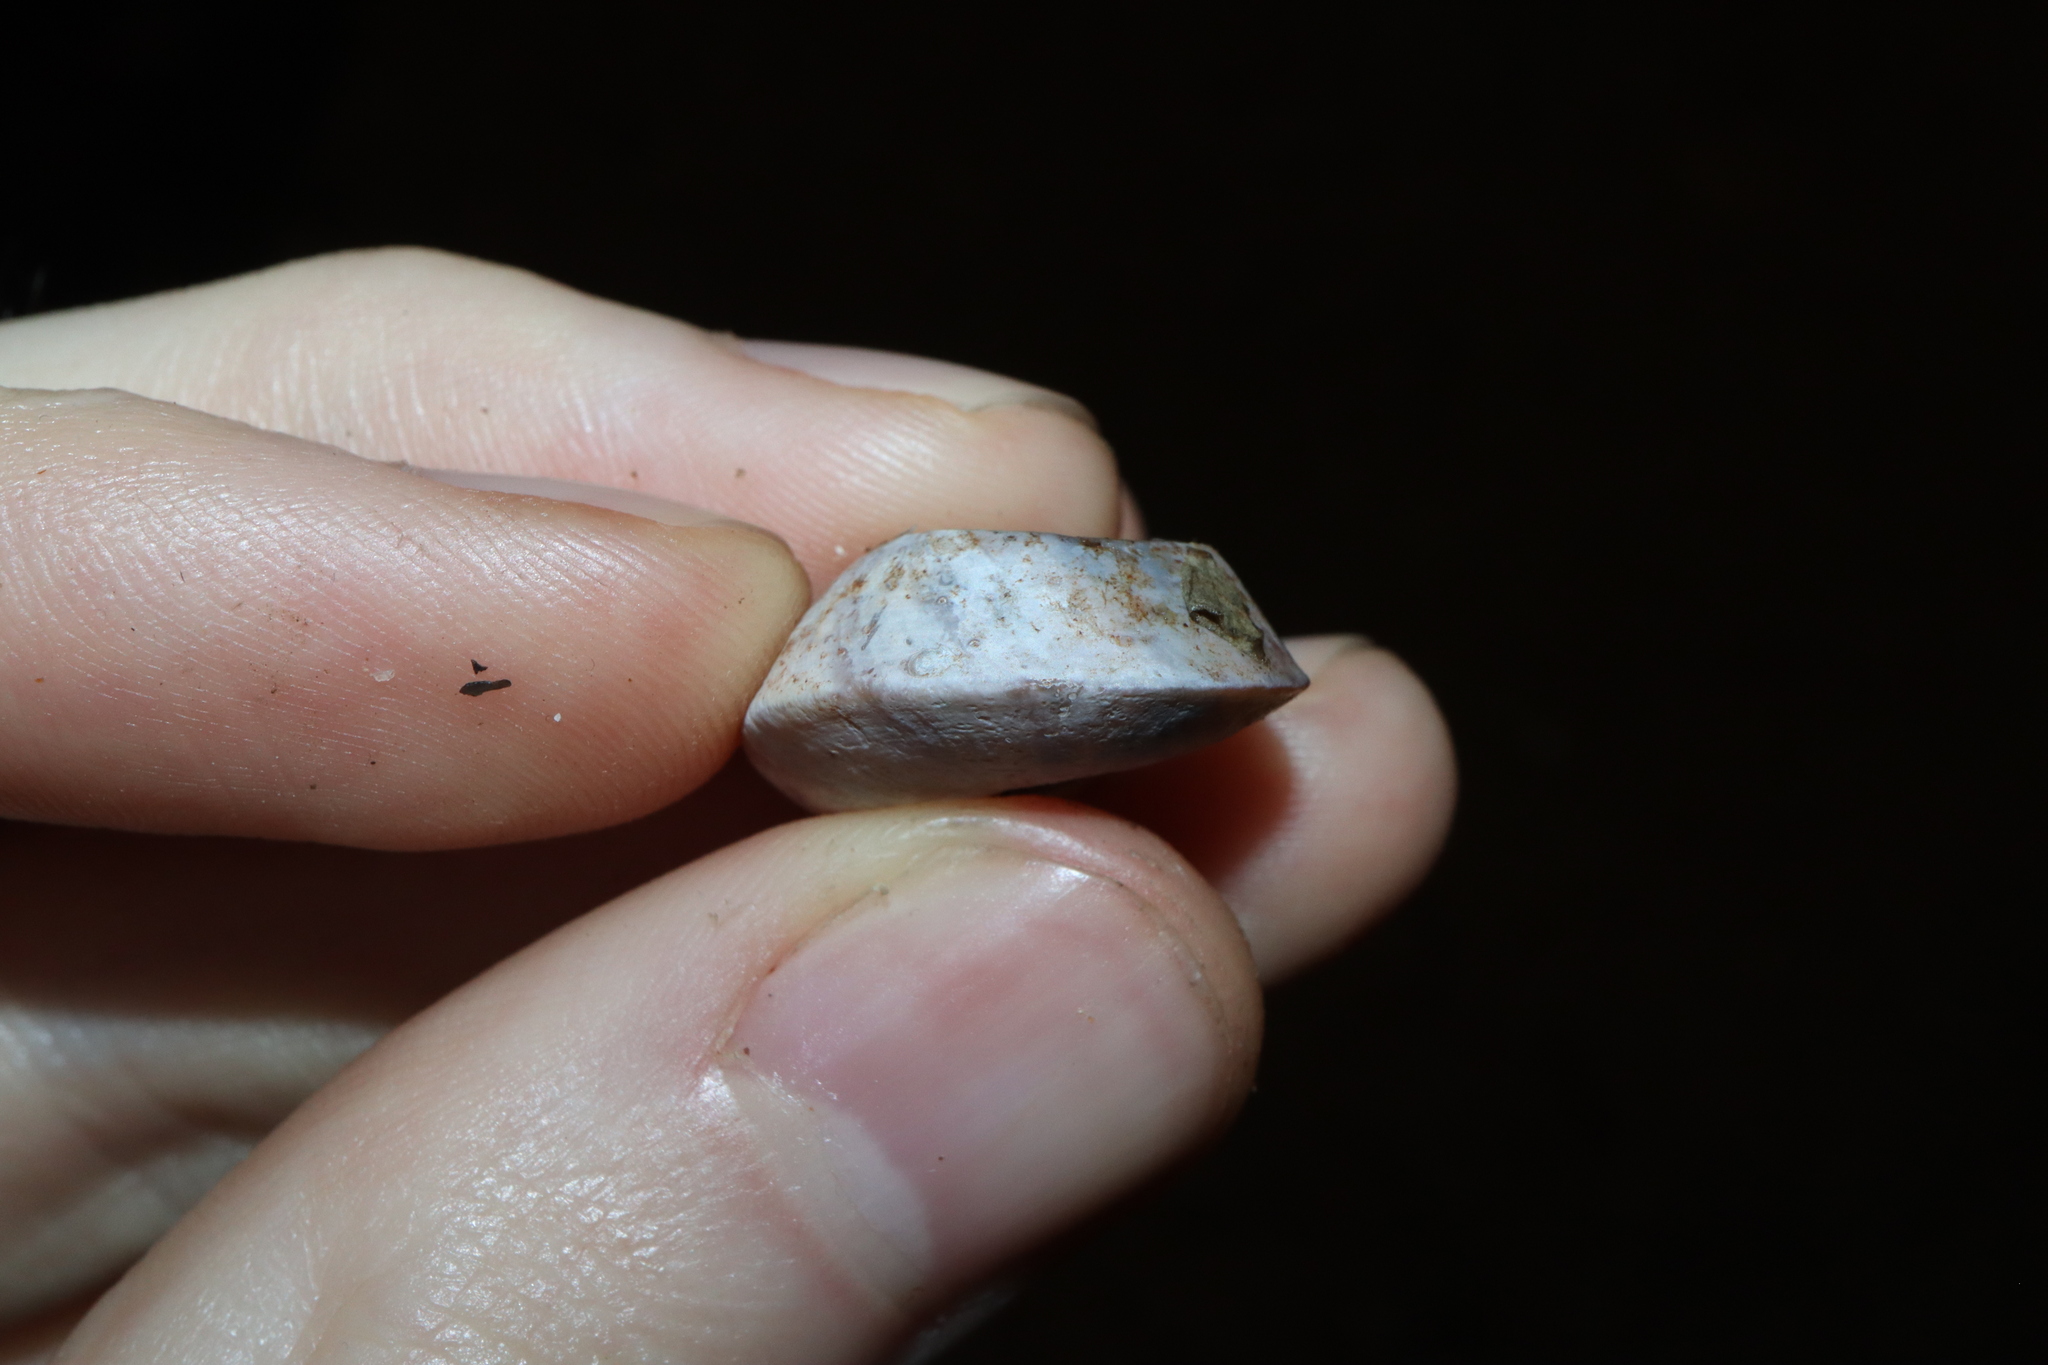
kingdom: Animalia
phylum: Mollusca
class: Gastropoda
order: Stylommatophora
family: Camaenidae
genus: Rhynchotrochus
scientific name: Rhynchotrochus macgillivrayi
